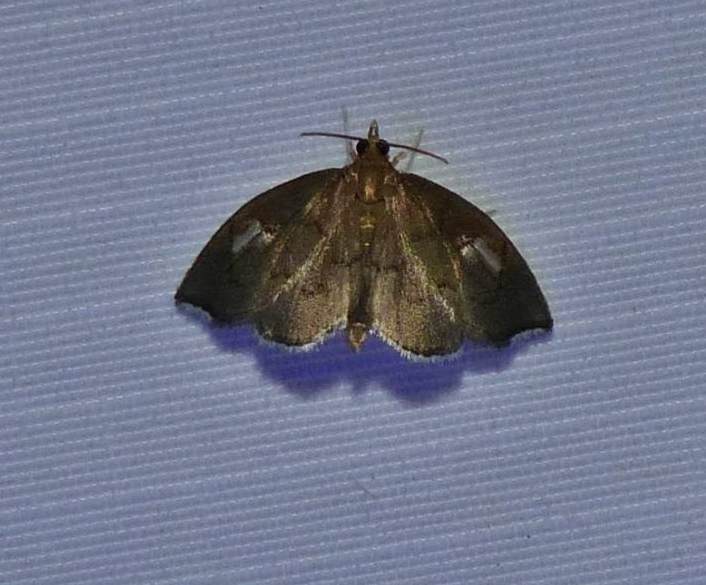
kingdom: Animalia
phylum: Arthropoda
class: Insecta
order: Lepidoptera
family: Crambidae
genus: Perispasta
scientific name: Perispasta caeculalis
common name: Titian peale's moth
